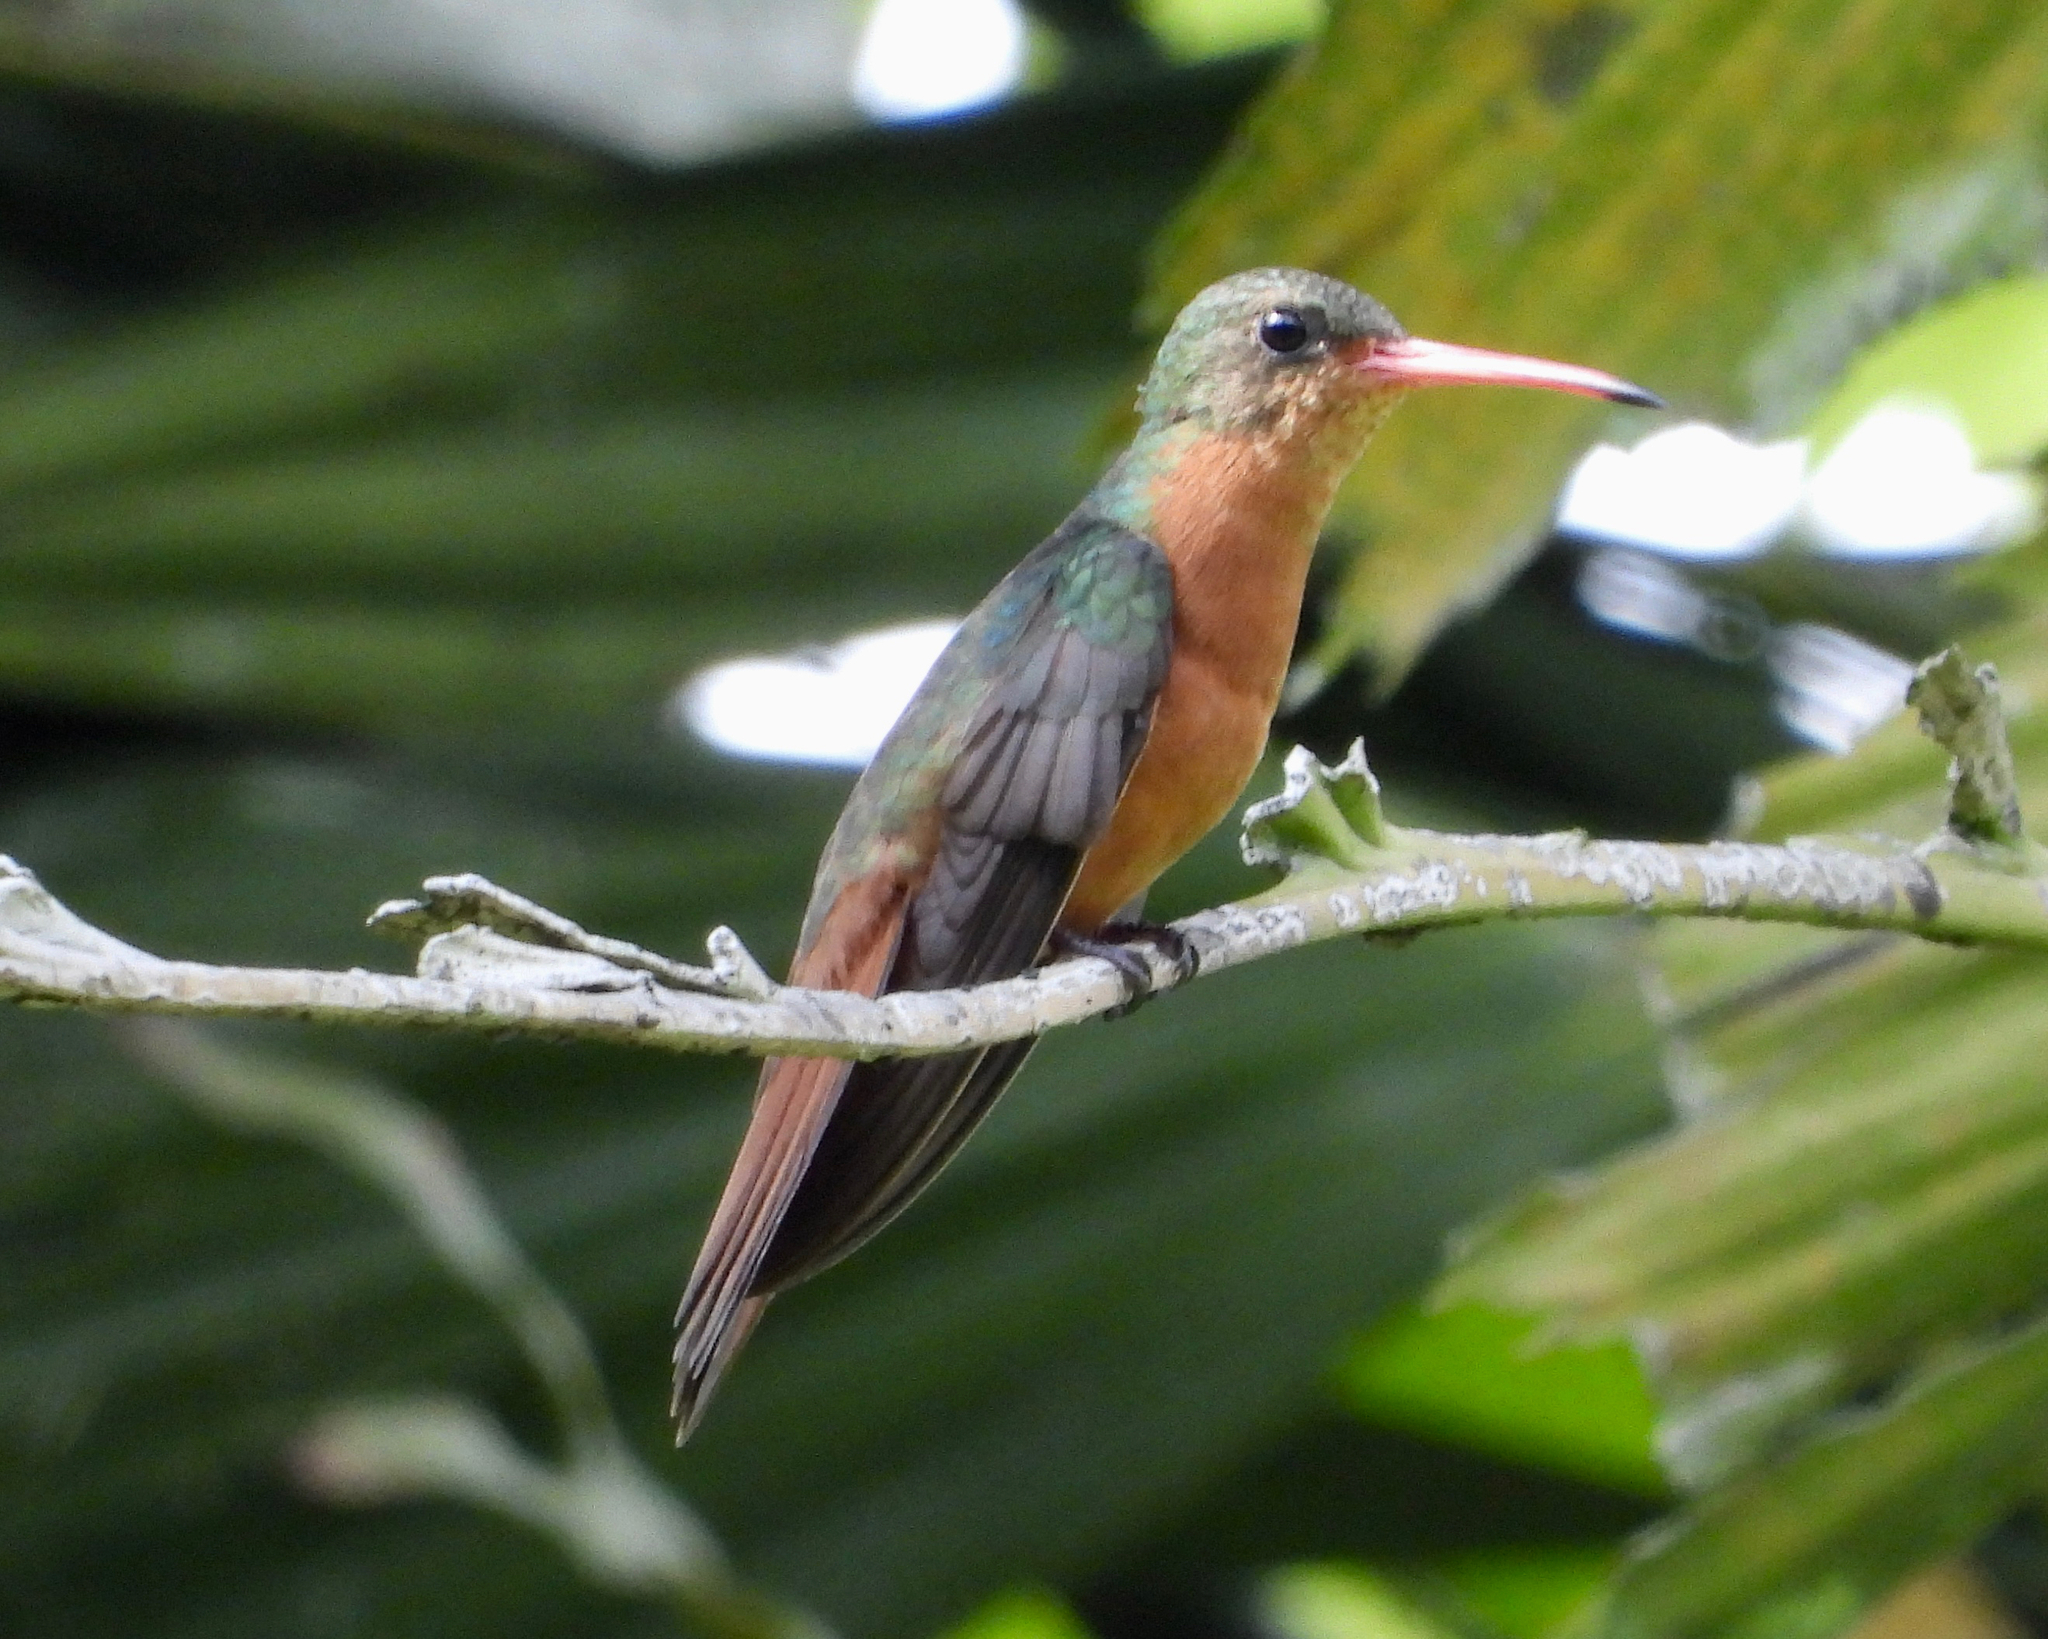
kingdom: Animalia
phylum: Chordata
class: Aves
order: Apodiformes
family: Trochilidae
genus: Amazilia
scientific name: Amazilia rutila
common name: Cinnamon hummingbird
